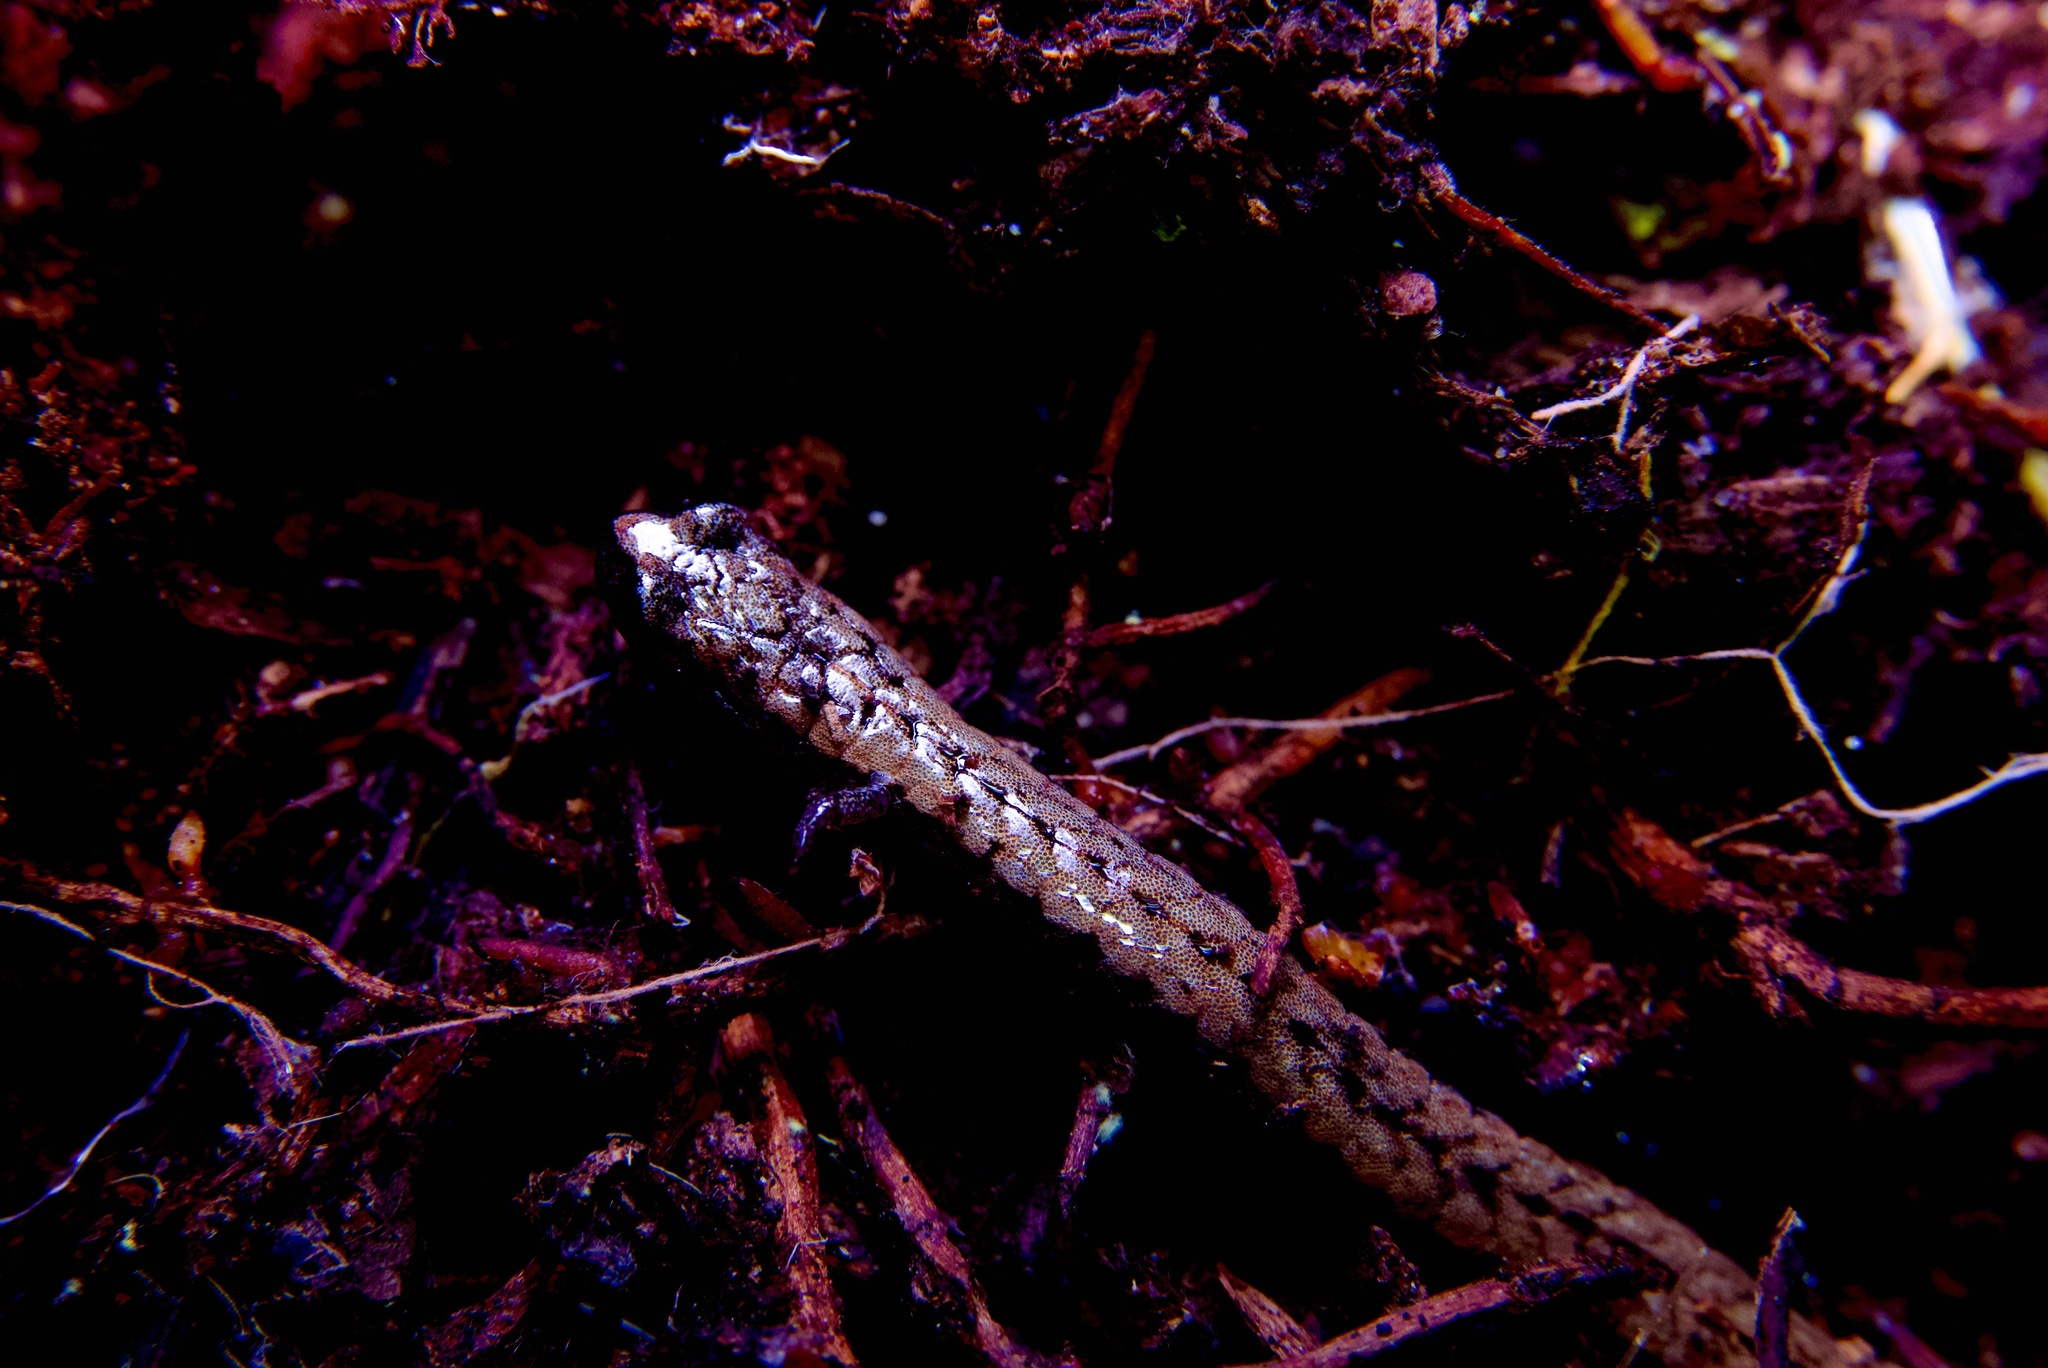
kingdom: Animalia
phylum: Chordata
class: Amphibia
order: Caudata
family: Plethodontidae
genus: Batrachoseps
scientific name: Batrachoseps attenuatus
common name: California slender salamander
